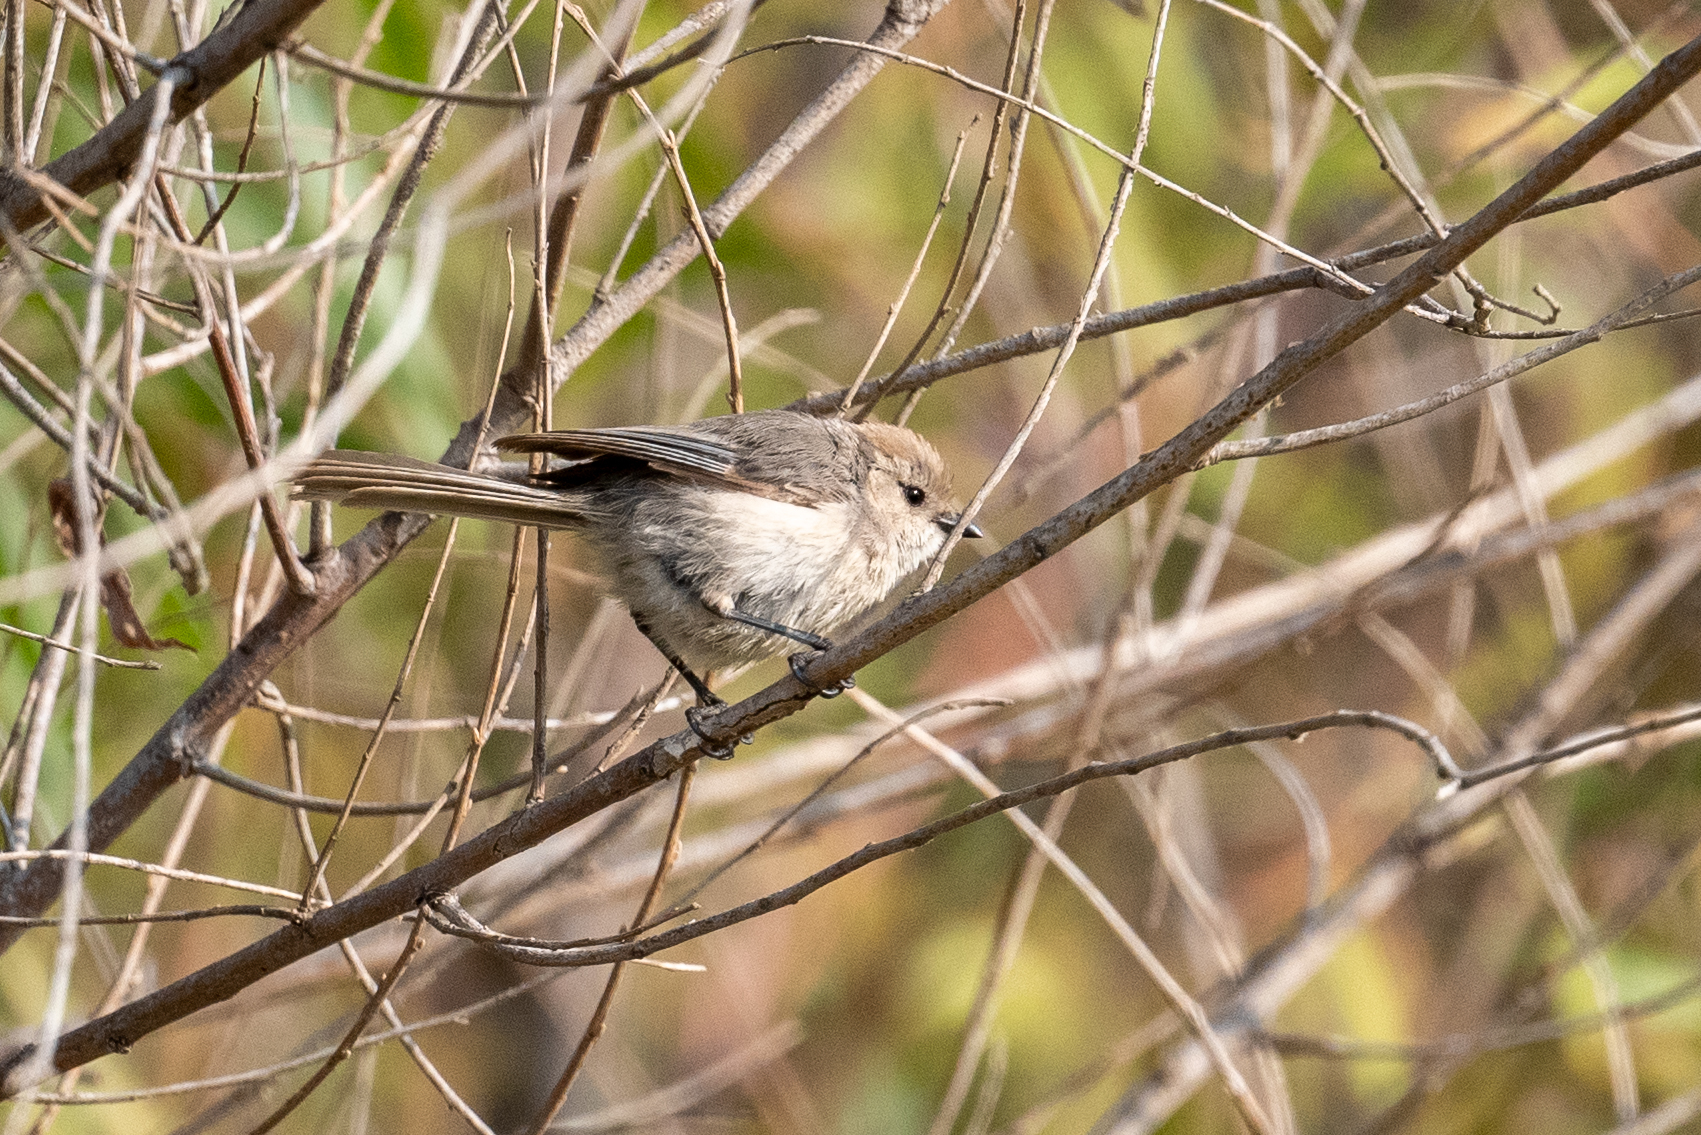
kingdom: Animalia
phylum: Chordata
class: Aves
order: Passeriformes
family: Aegithalidae
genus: Psaltriparus
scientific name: Psaltriparus minimus
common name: American bushtit
